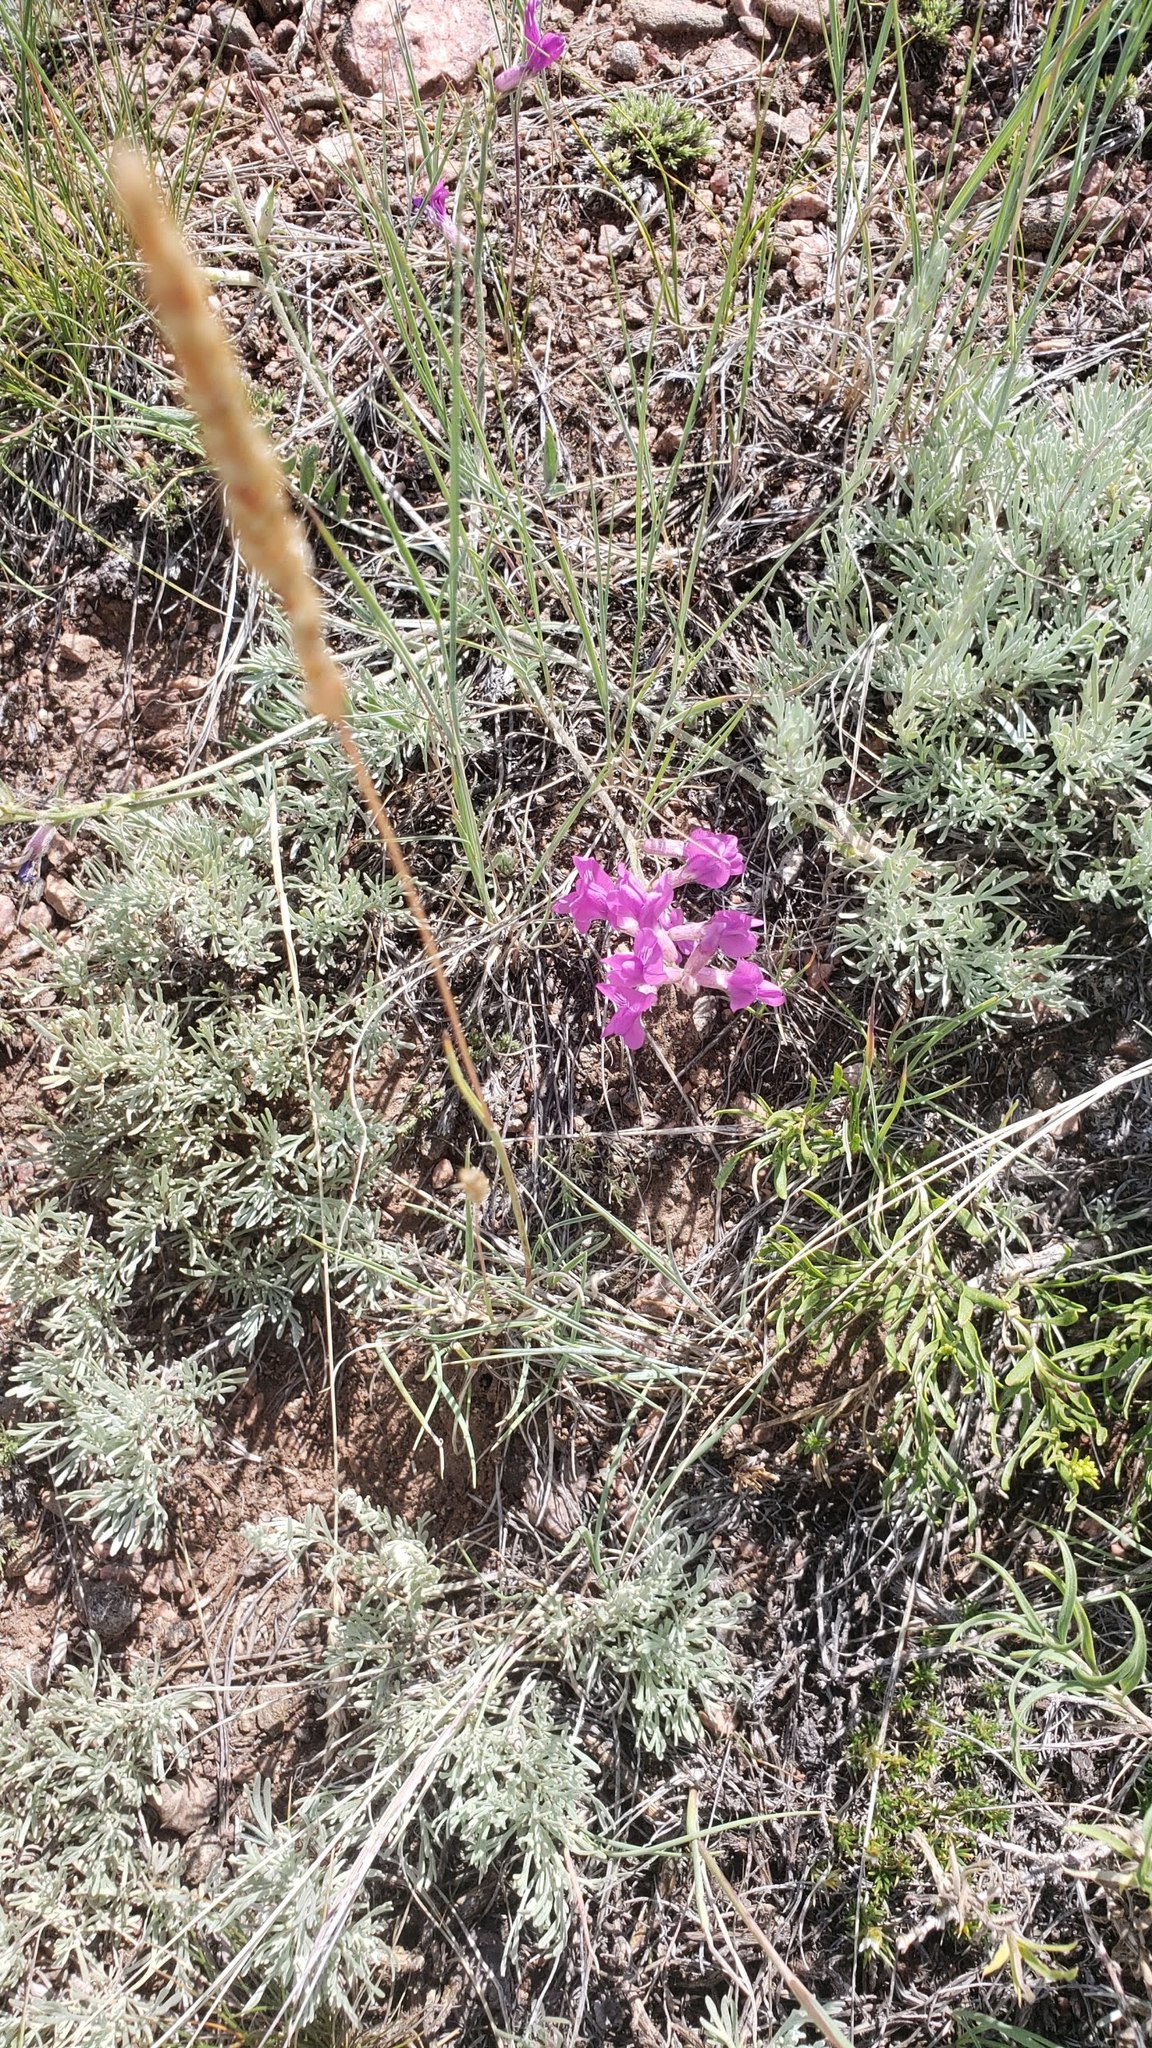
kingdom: Plantae
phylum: Tracheophyta
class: Magnoliopsida
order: Fabales
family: Fabaceae
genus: Oxytropis
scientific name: Oxytropis lambertii
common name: Purple locoweed
